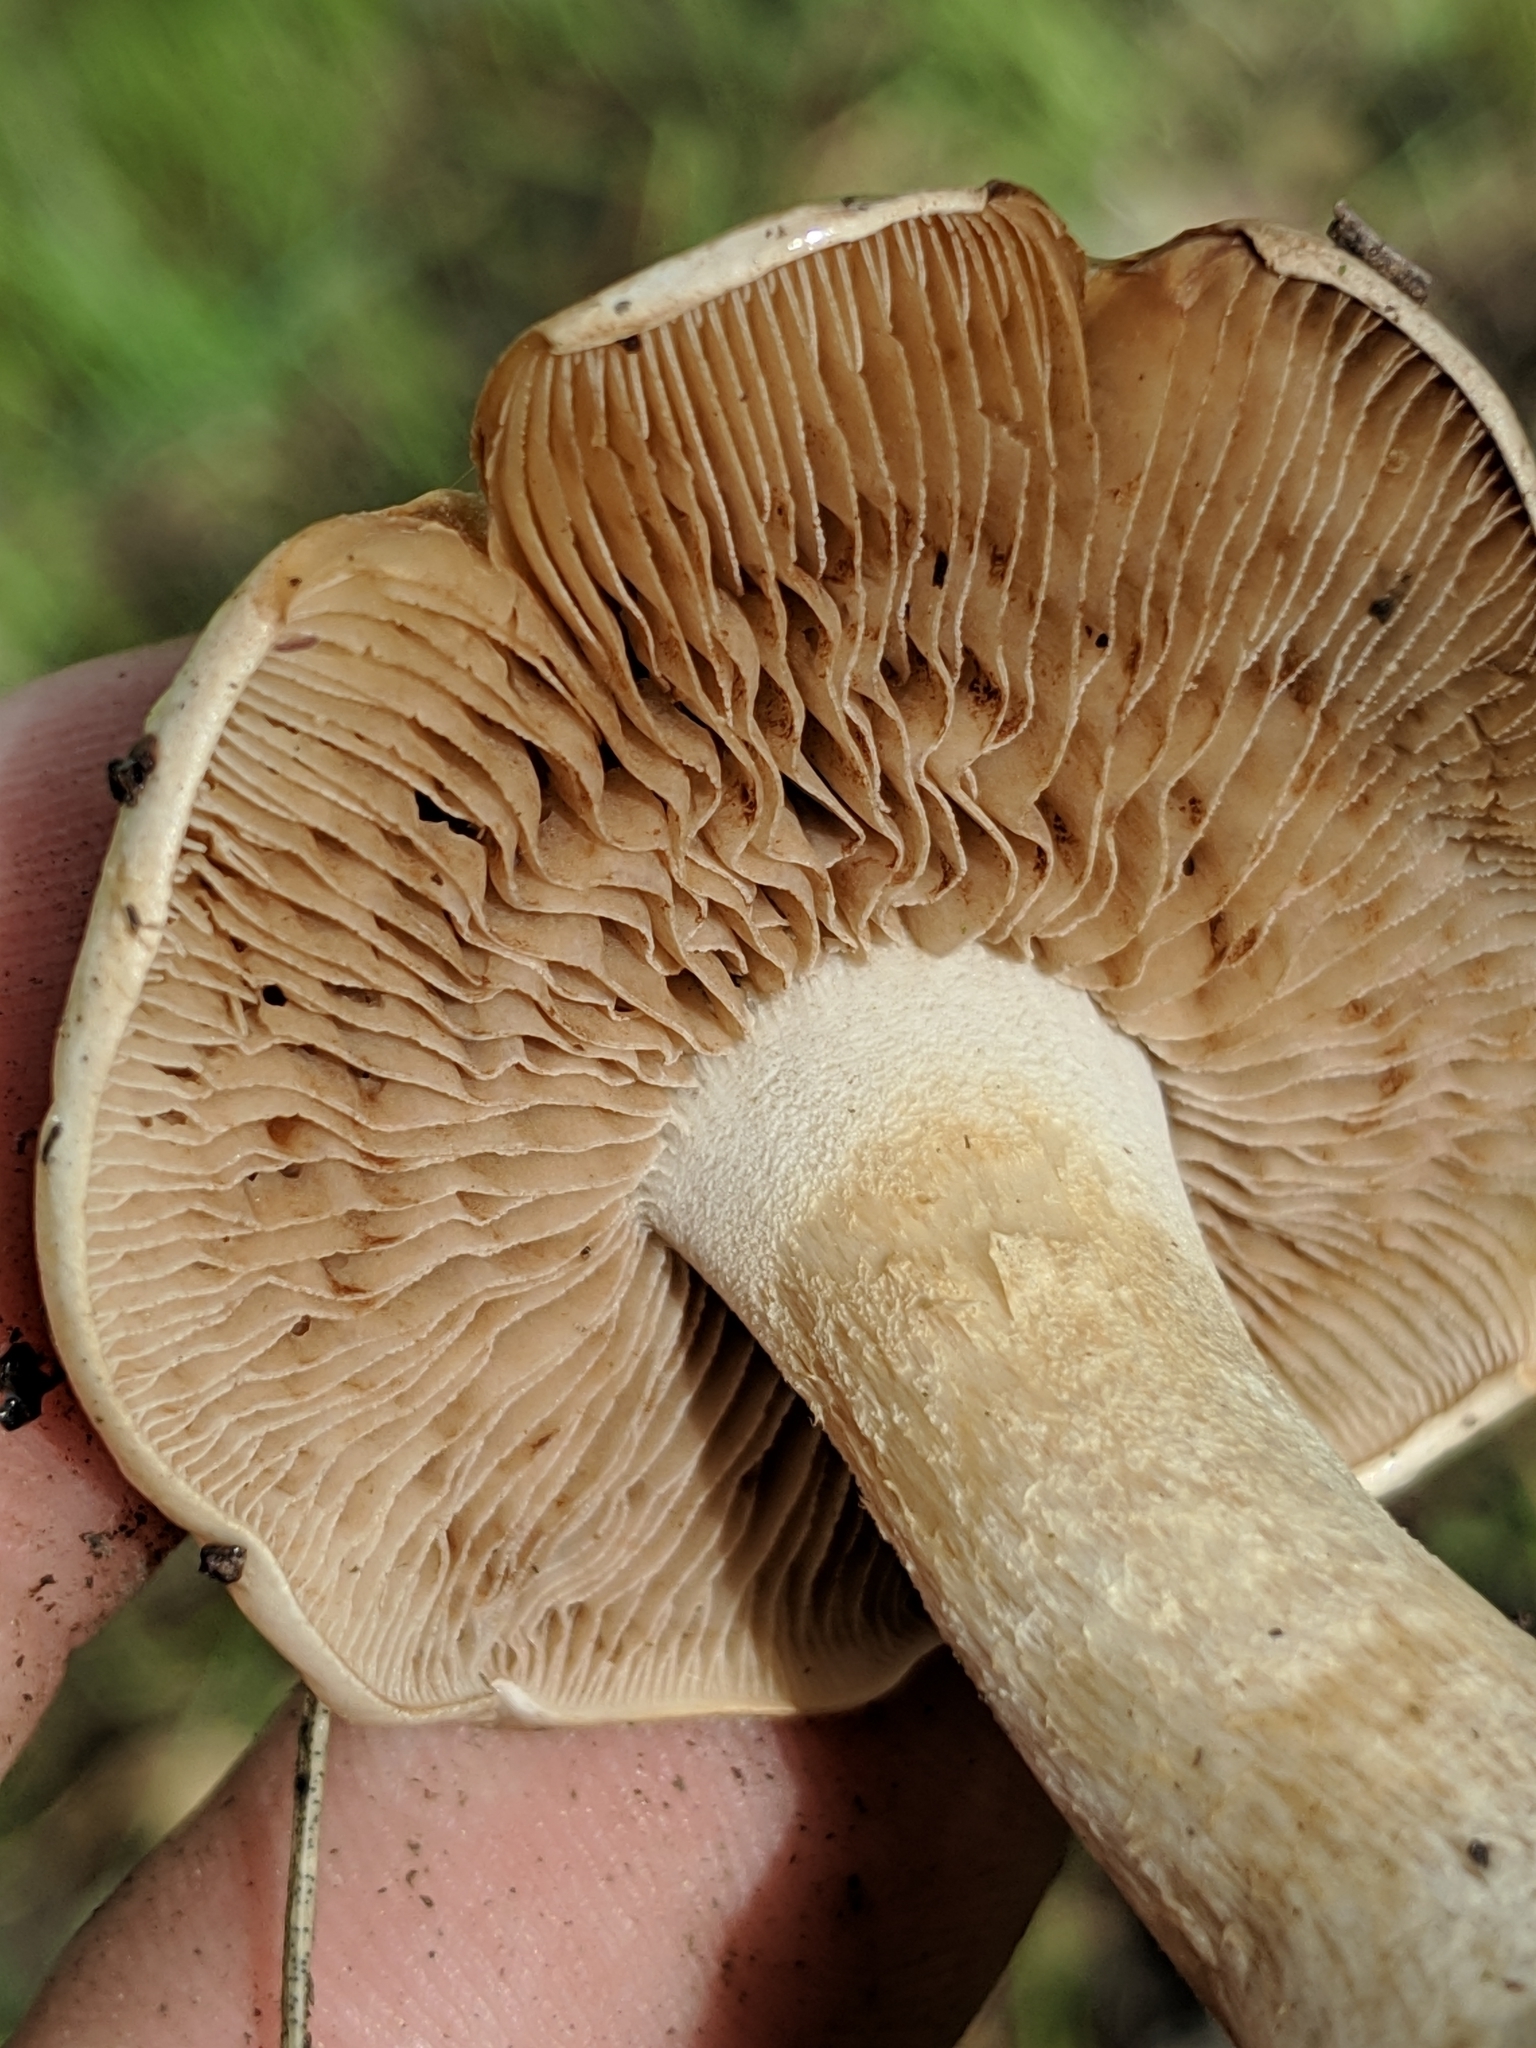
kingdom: Fungi
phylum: Basidiomycota
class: Agaricomycetes
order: Agaricales
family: Hymenogastraceae
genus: Hebeloma
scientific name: Hebeloma leucosarx
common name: Birch poisonpie
